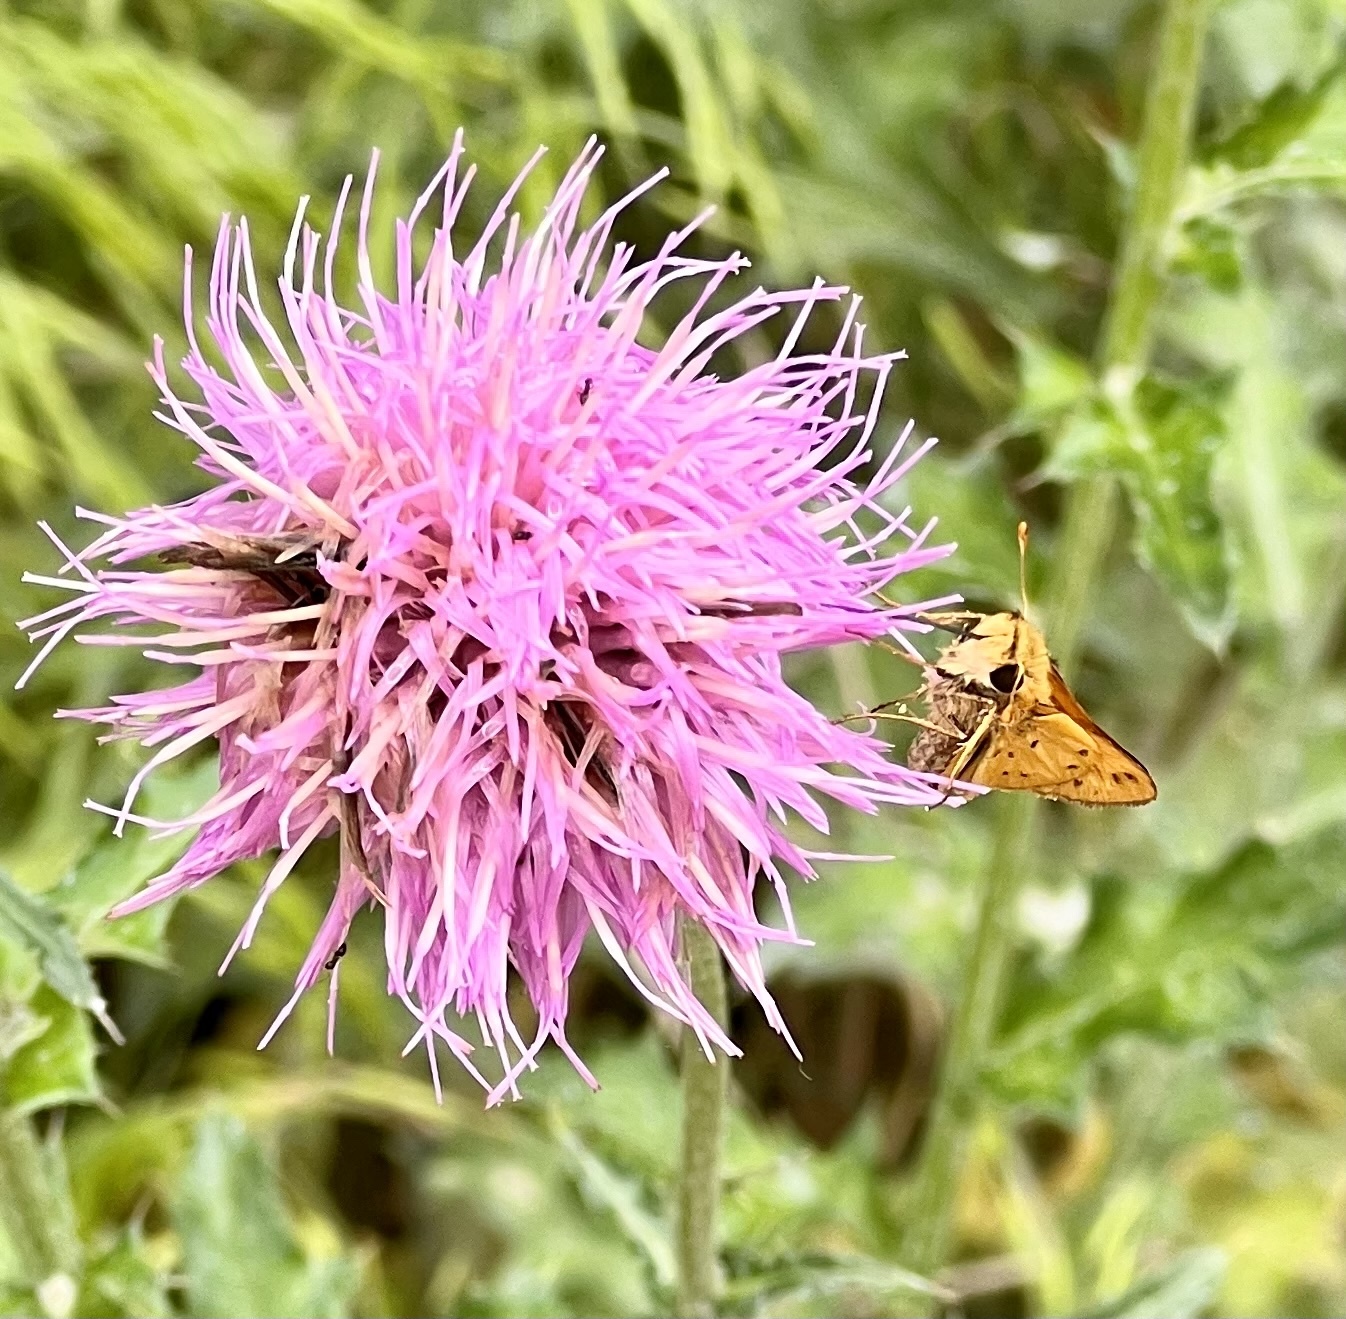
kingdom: Animalia
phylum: Arthropoda
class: Insecta
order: Lepidoptera
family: Hesperiidae
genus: Hylephila
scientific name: Hylephila phyleus
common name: Fiery skipper
